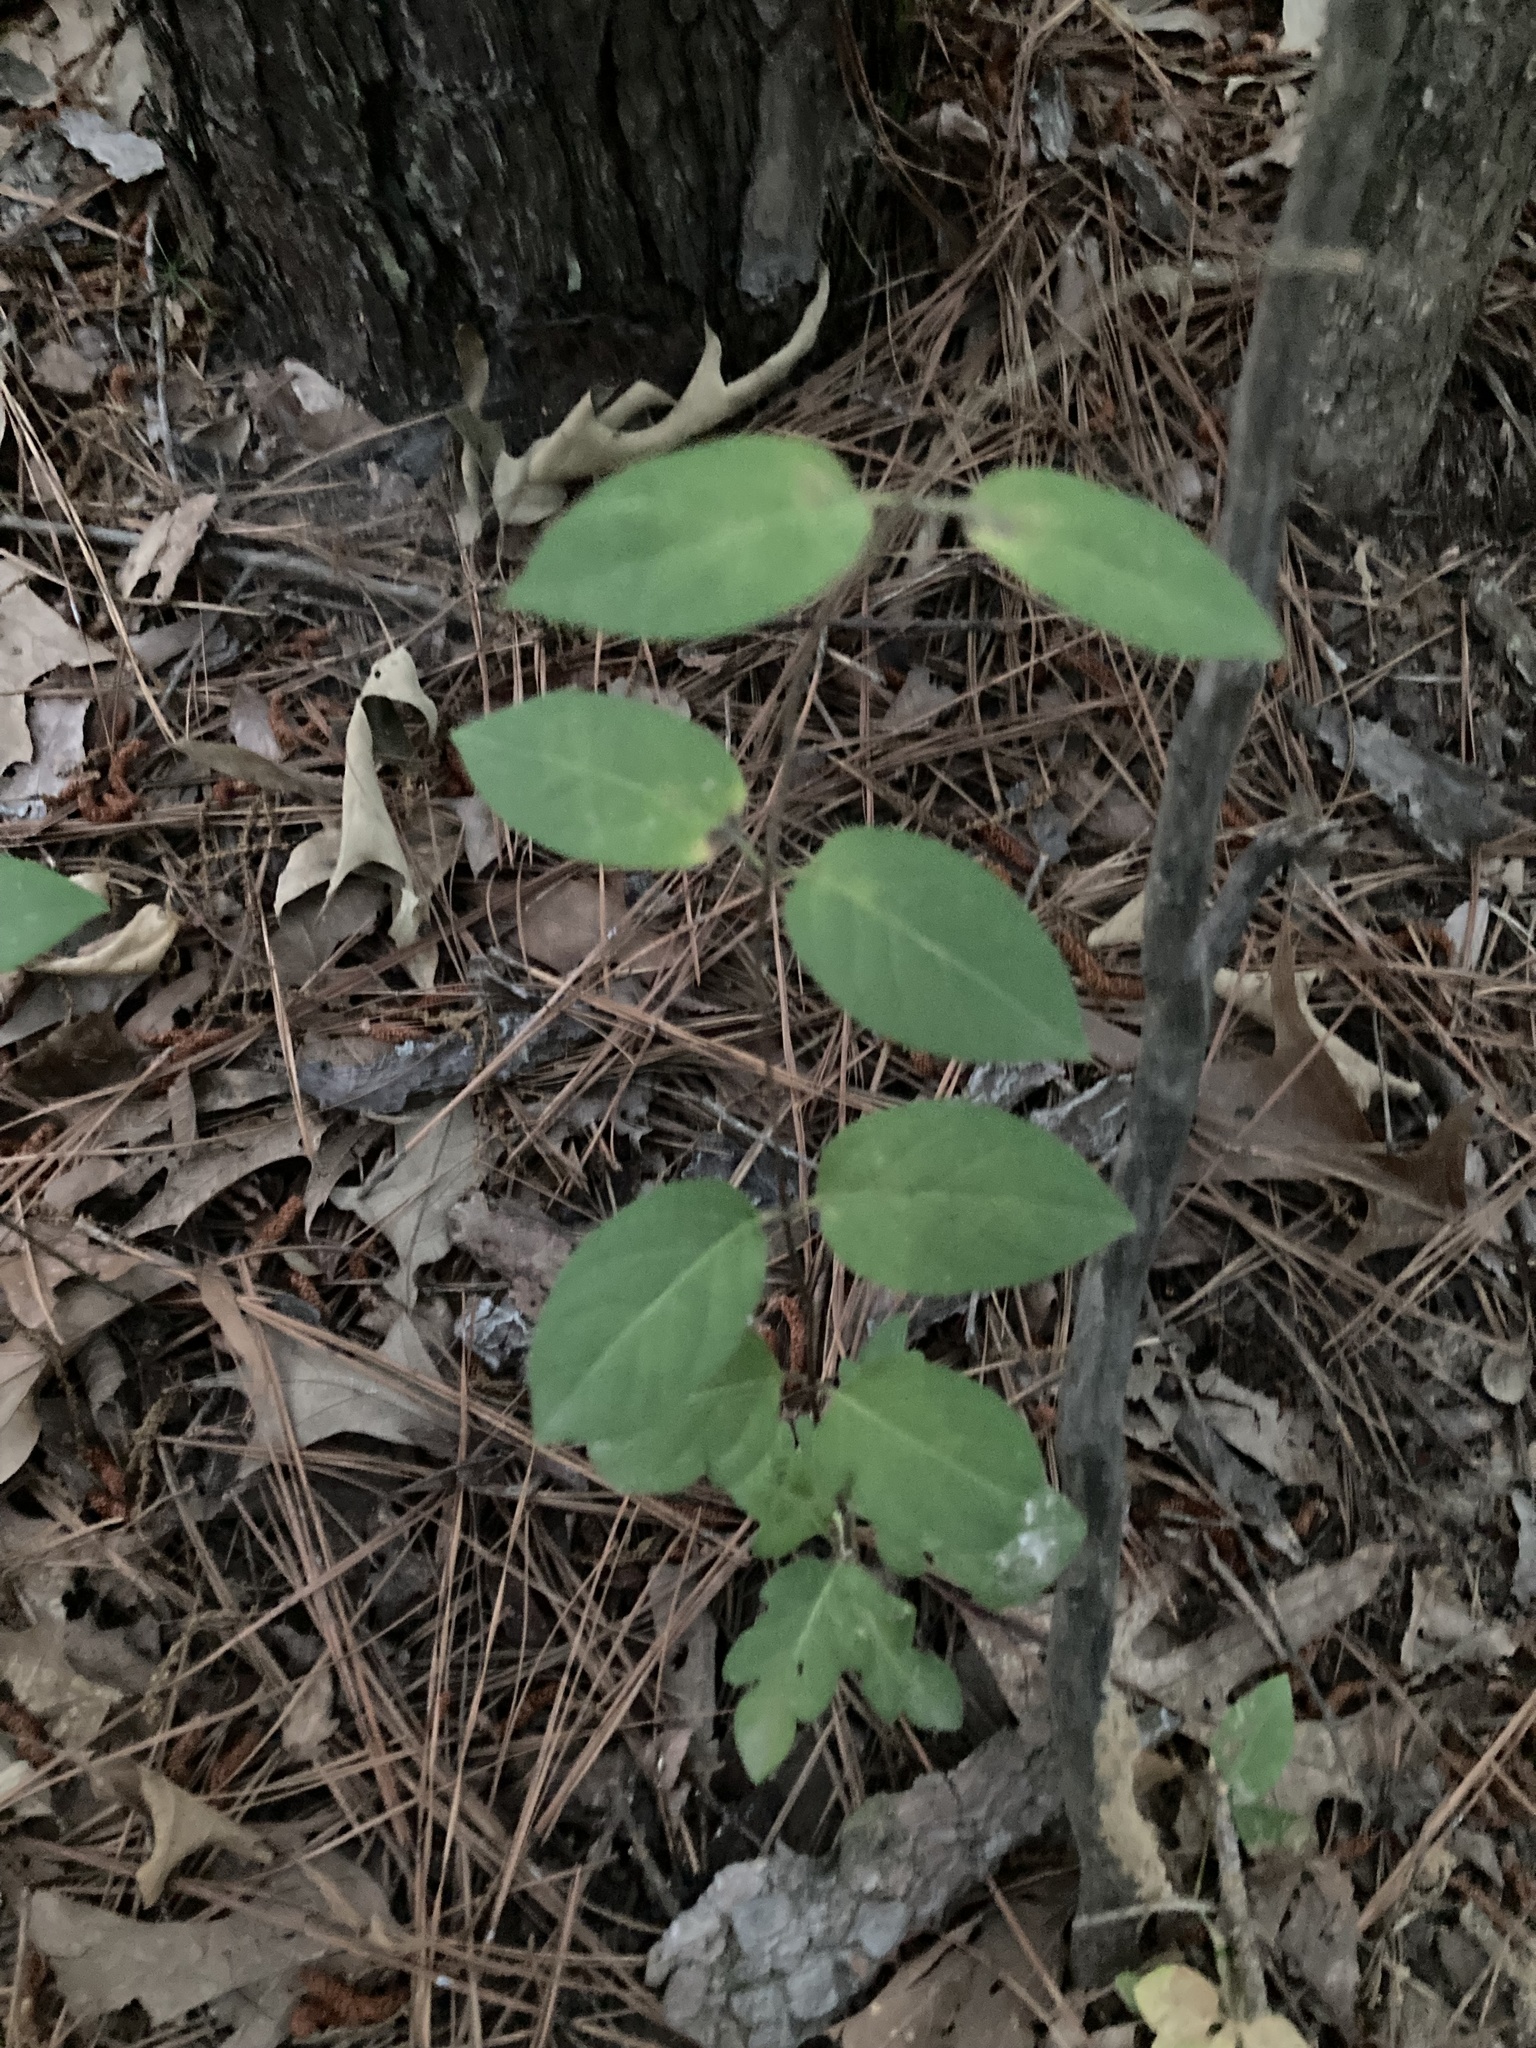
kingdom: Plantae
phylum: Tracheophyta
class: Magnoliopsida
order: Dipsacales
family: Caprifoliaceae
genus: Lonicera
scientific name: Lonicera japonica
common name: Japanese honeysuckle
